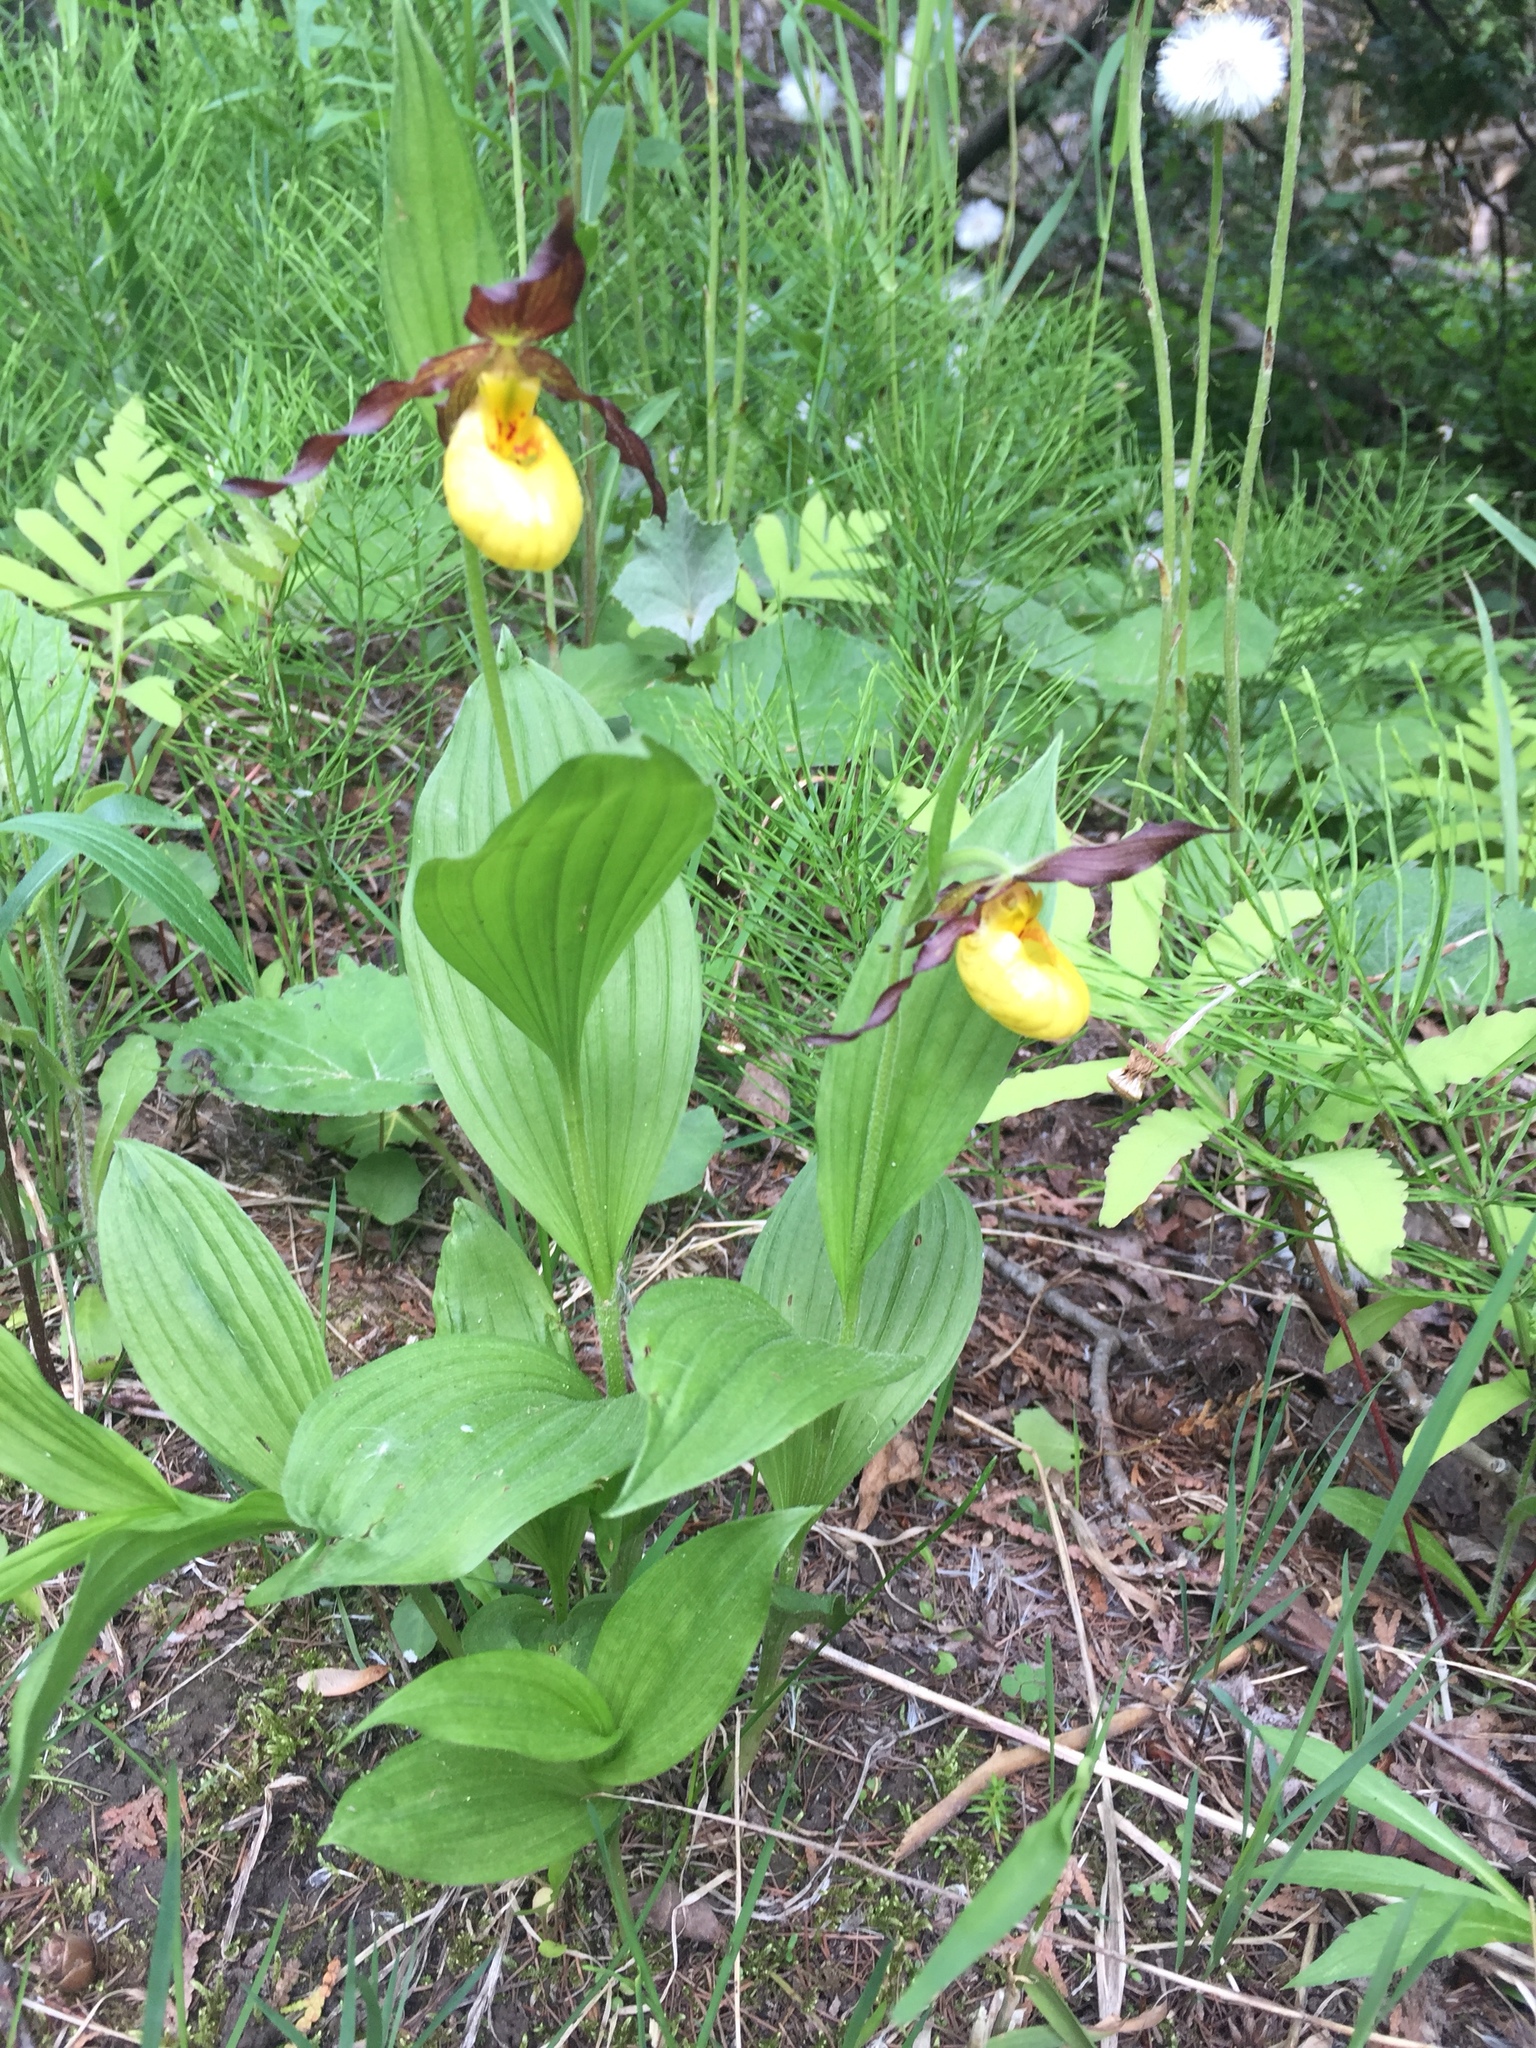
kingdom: Plantae
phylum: Tracheophyta
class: Liliopsida
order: Asparagales
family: Orchidaceae
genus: Cypripedium
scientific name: Cypripedium parviflorum
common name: American yellow lady's-slipper
